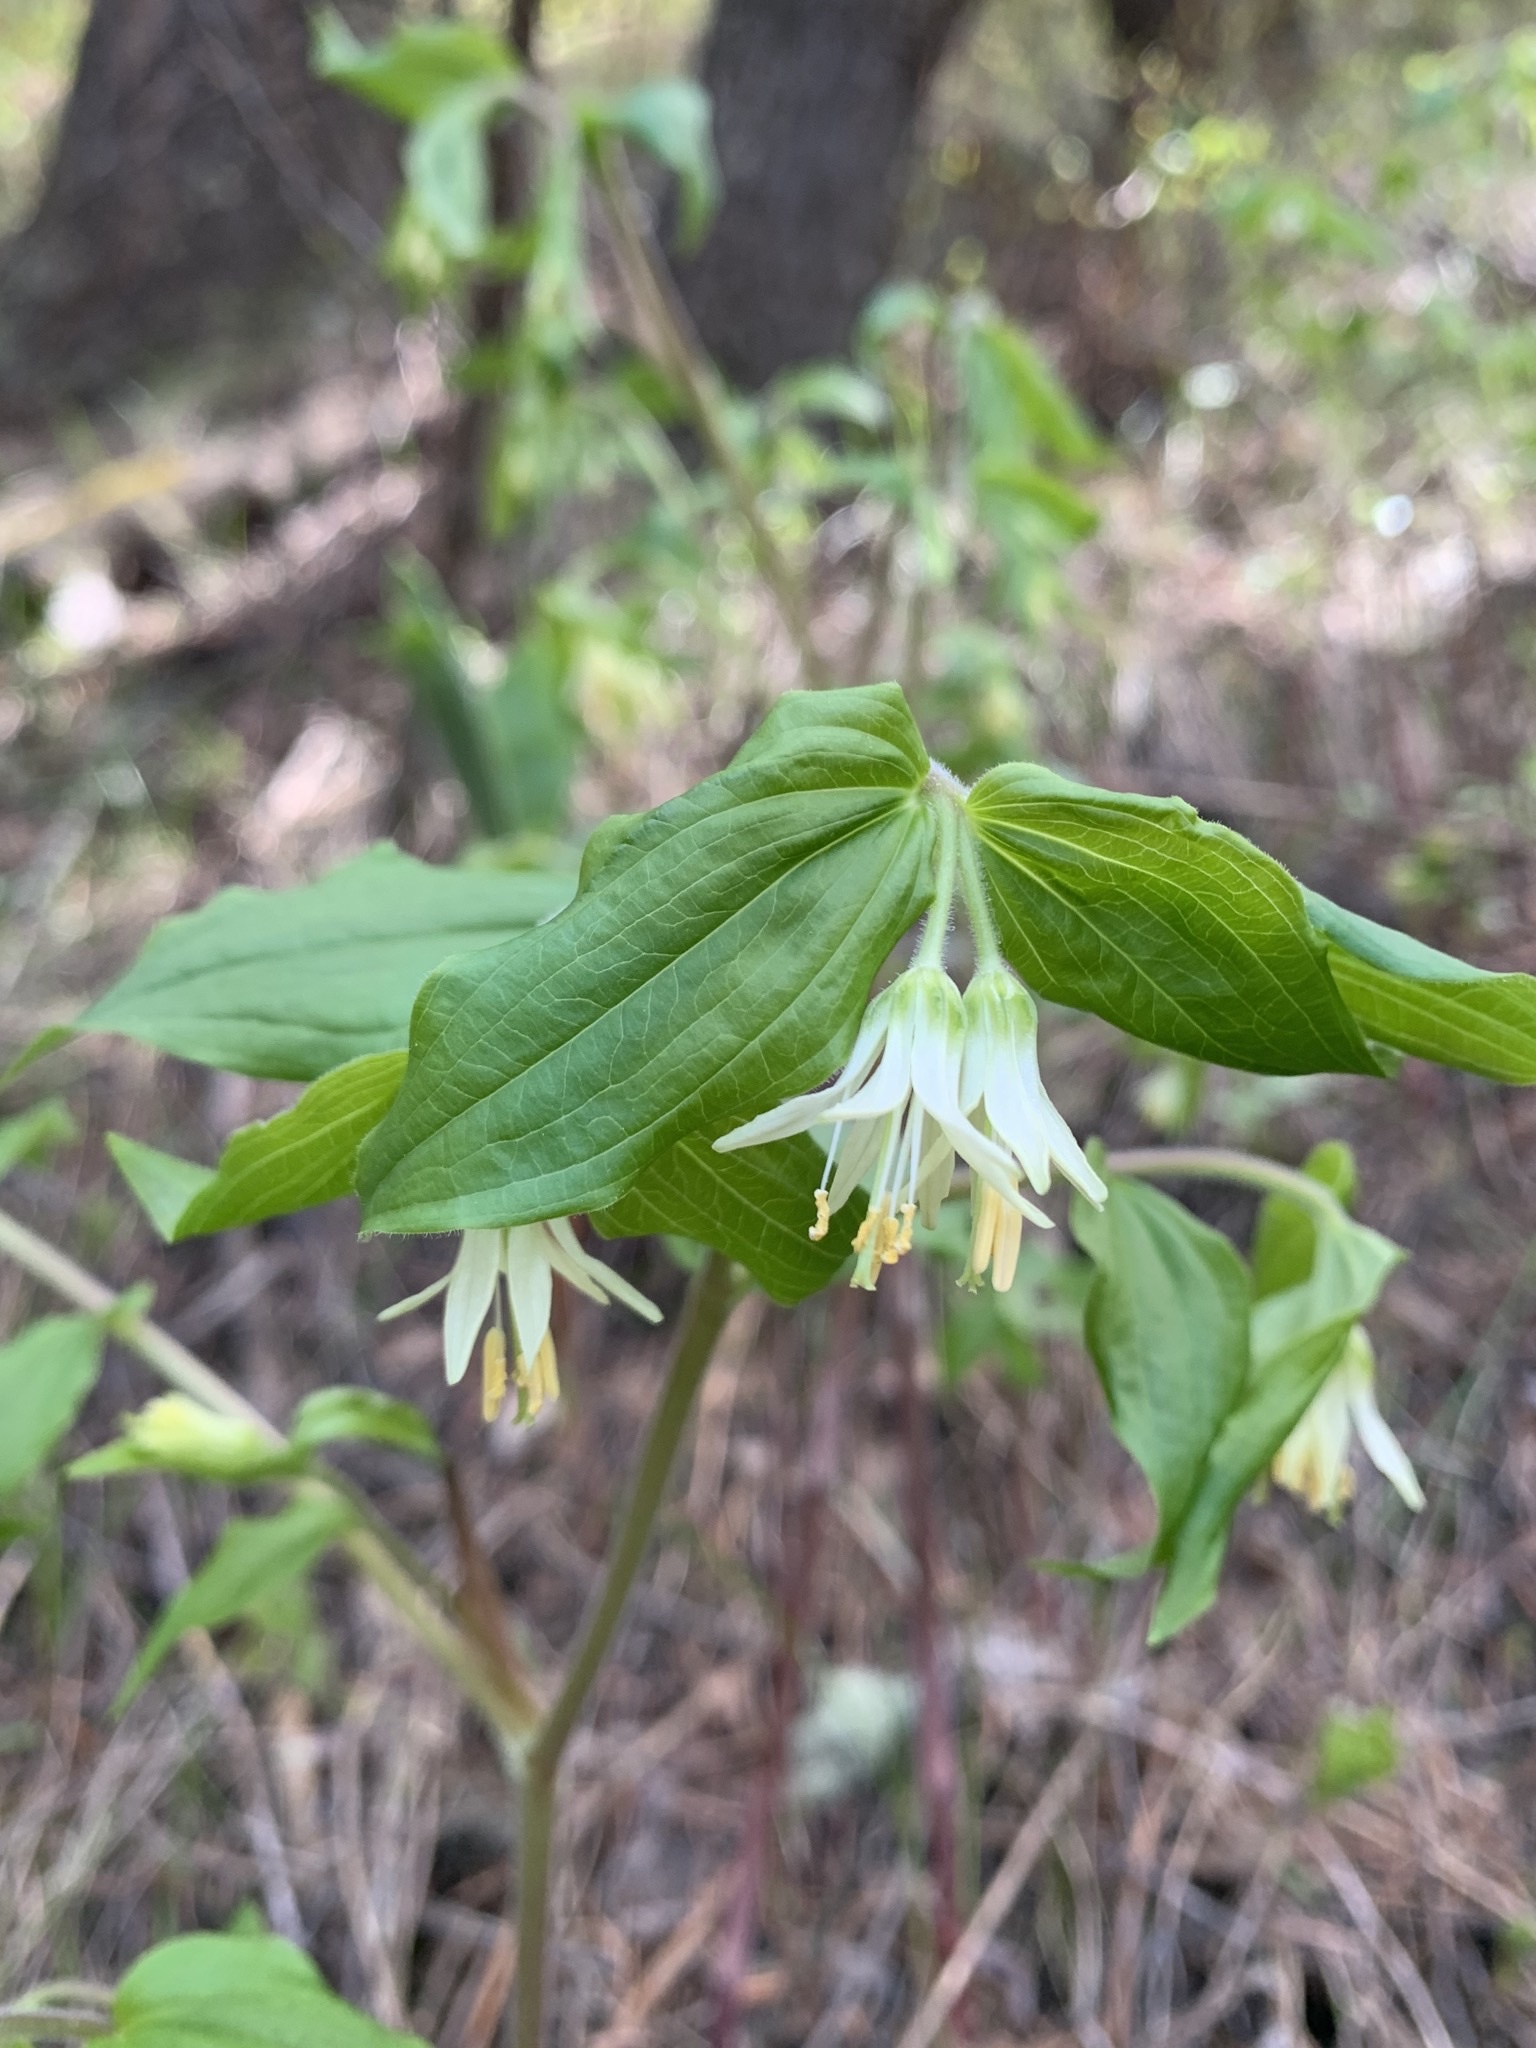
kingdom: Plantae
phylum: Tracheophyta
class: Liliopsida
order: Liliales
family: Liliaceae
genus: Prosartes
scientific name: Prosartes trachycarpa
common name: Rough-fruit fairy-bells
